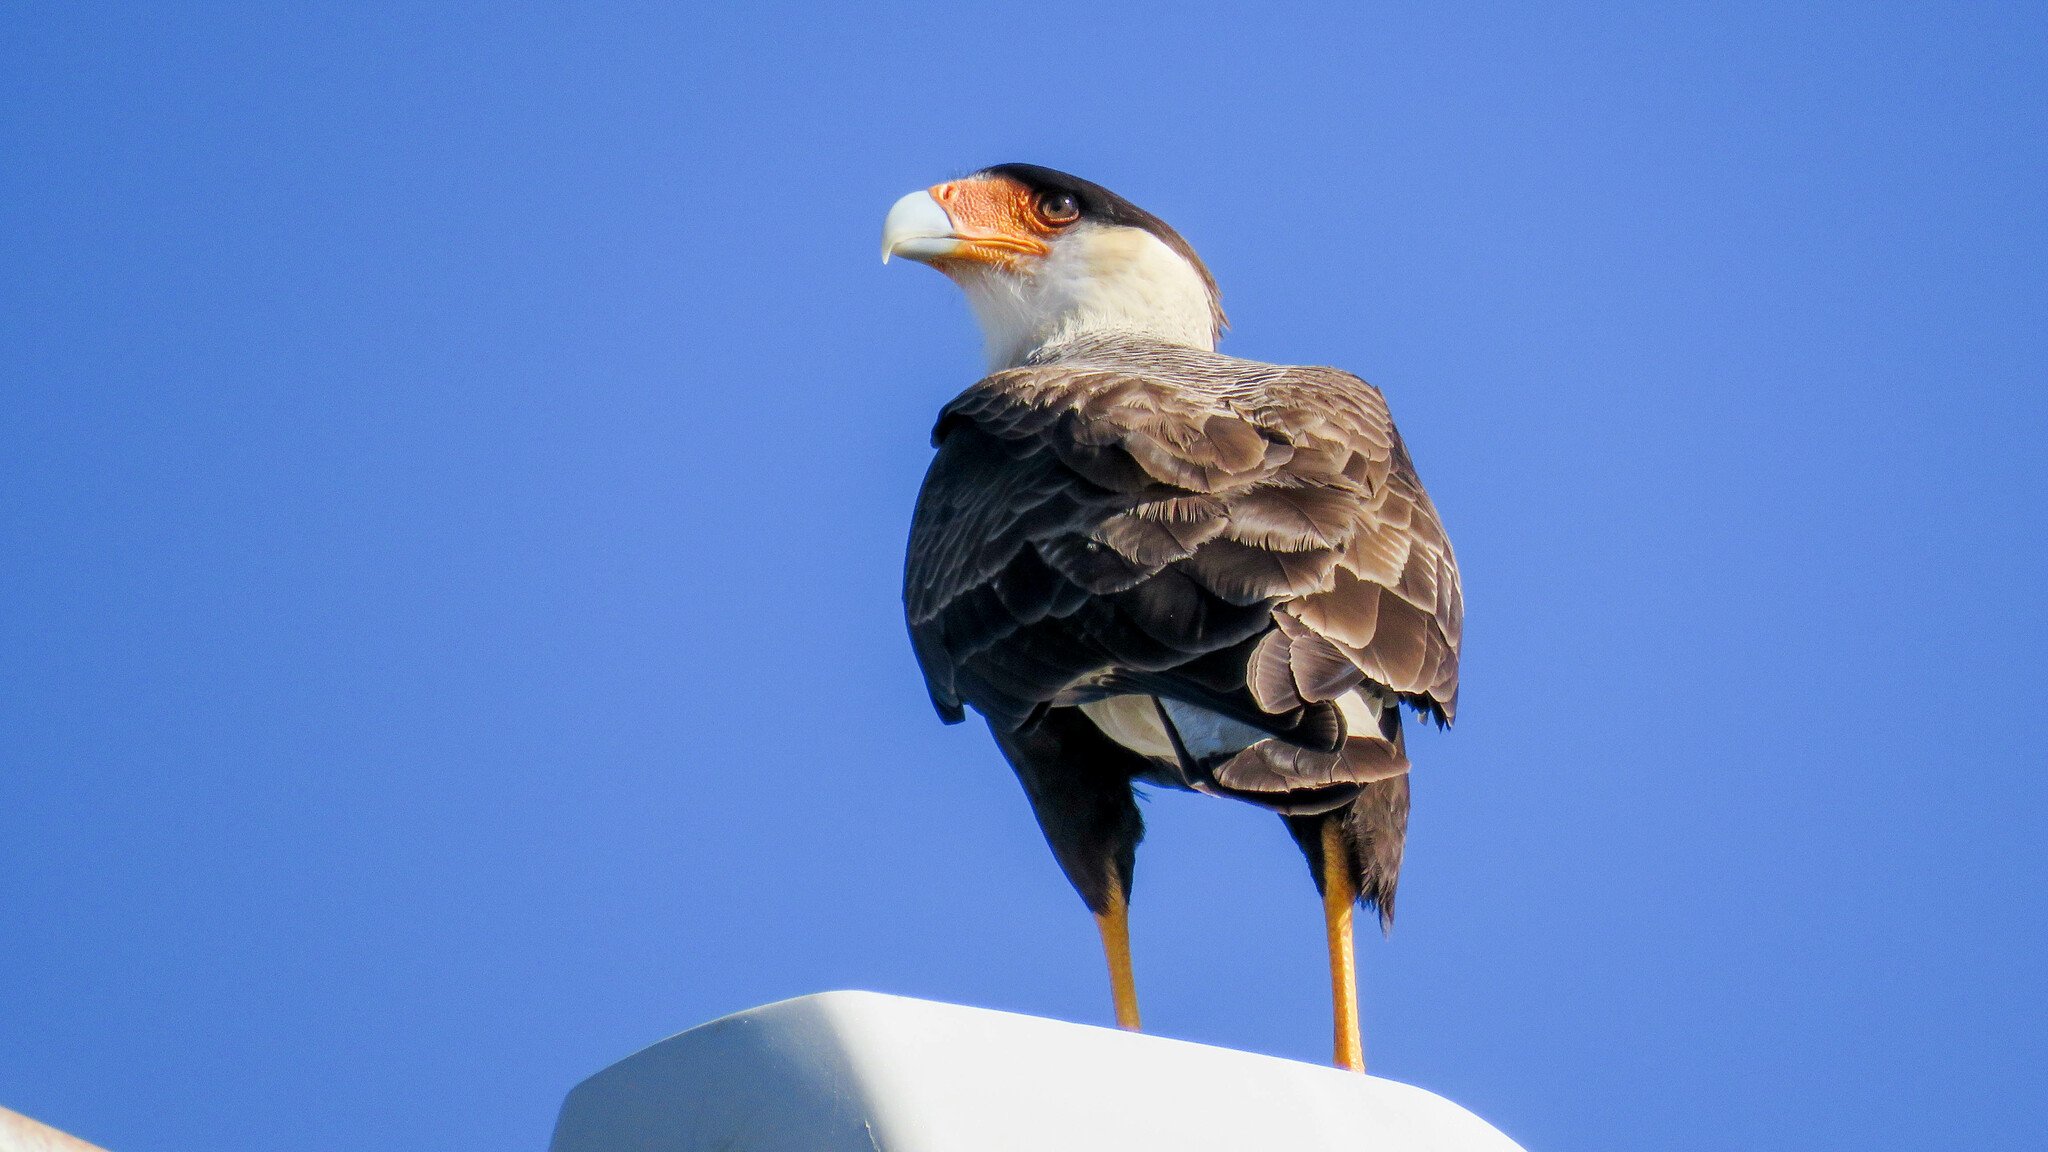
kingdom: Animalia
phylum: Chordata
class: Aves
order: Falconiformes
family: Falconidae
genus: Caracara
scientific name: Caracara plancus
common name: Southern caracara
